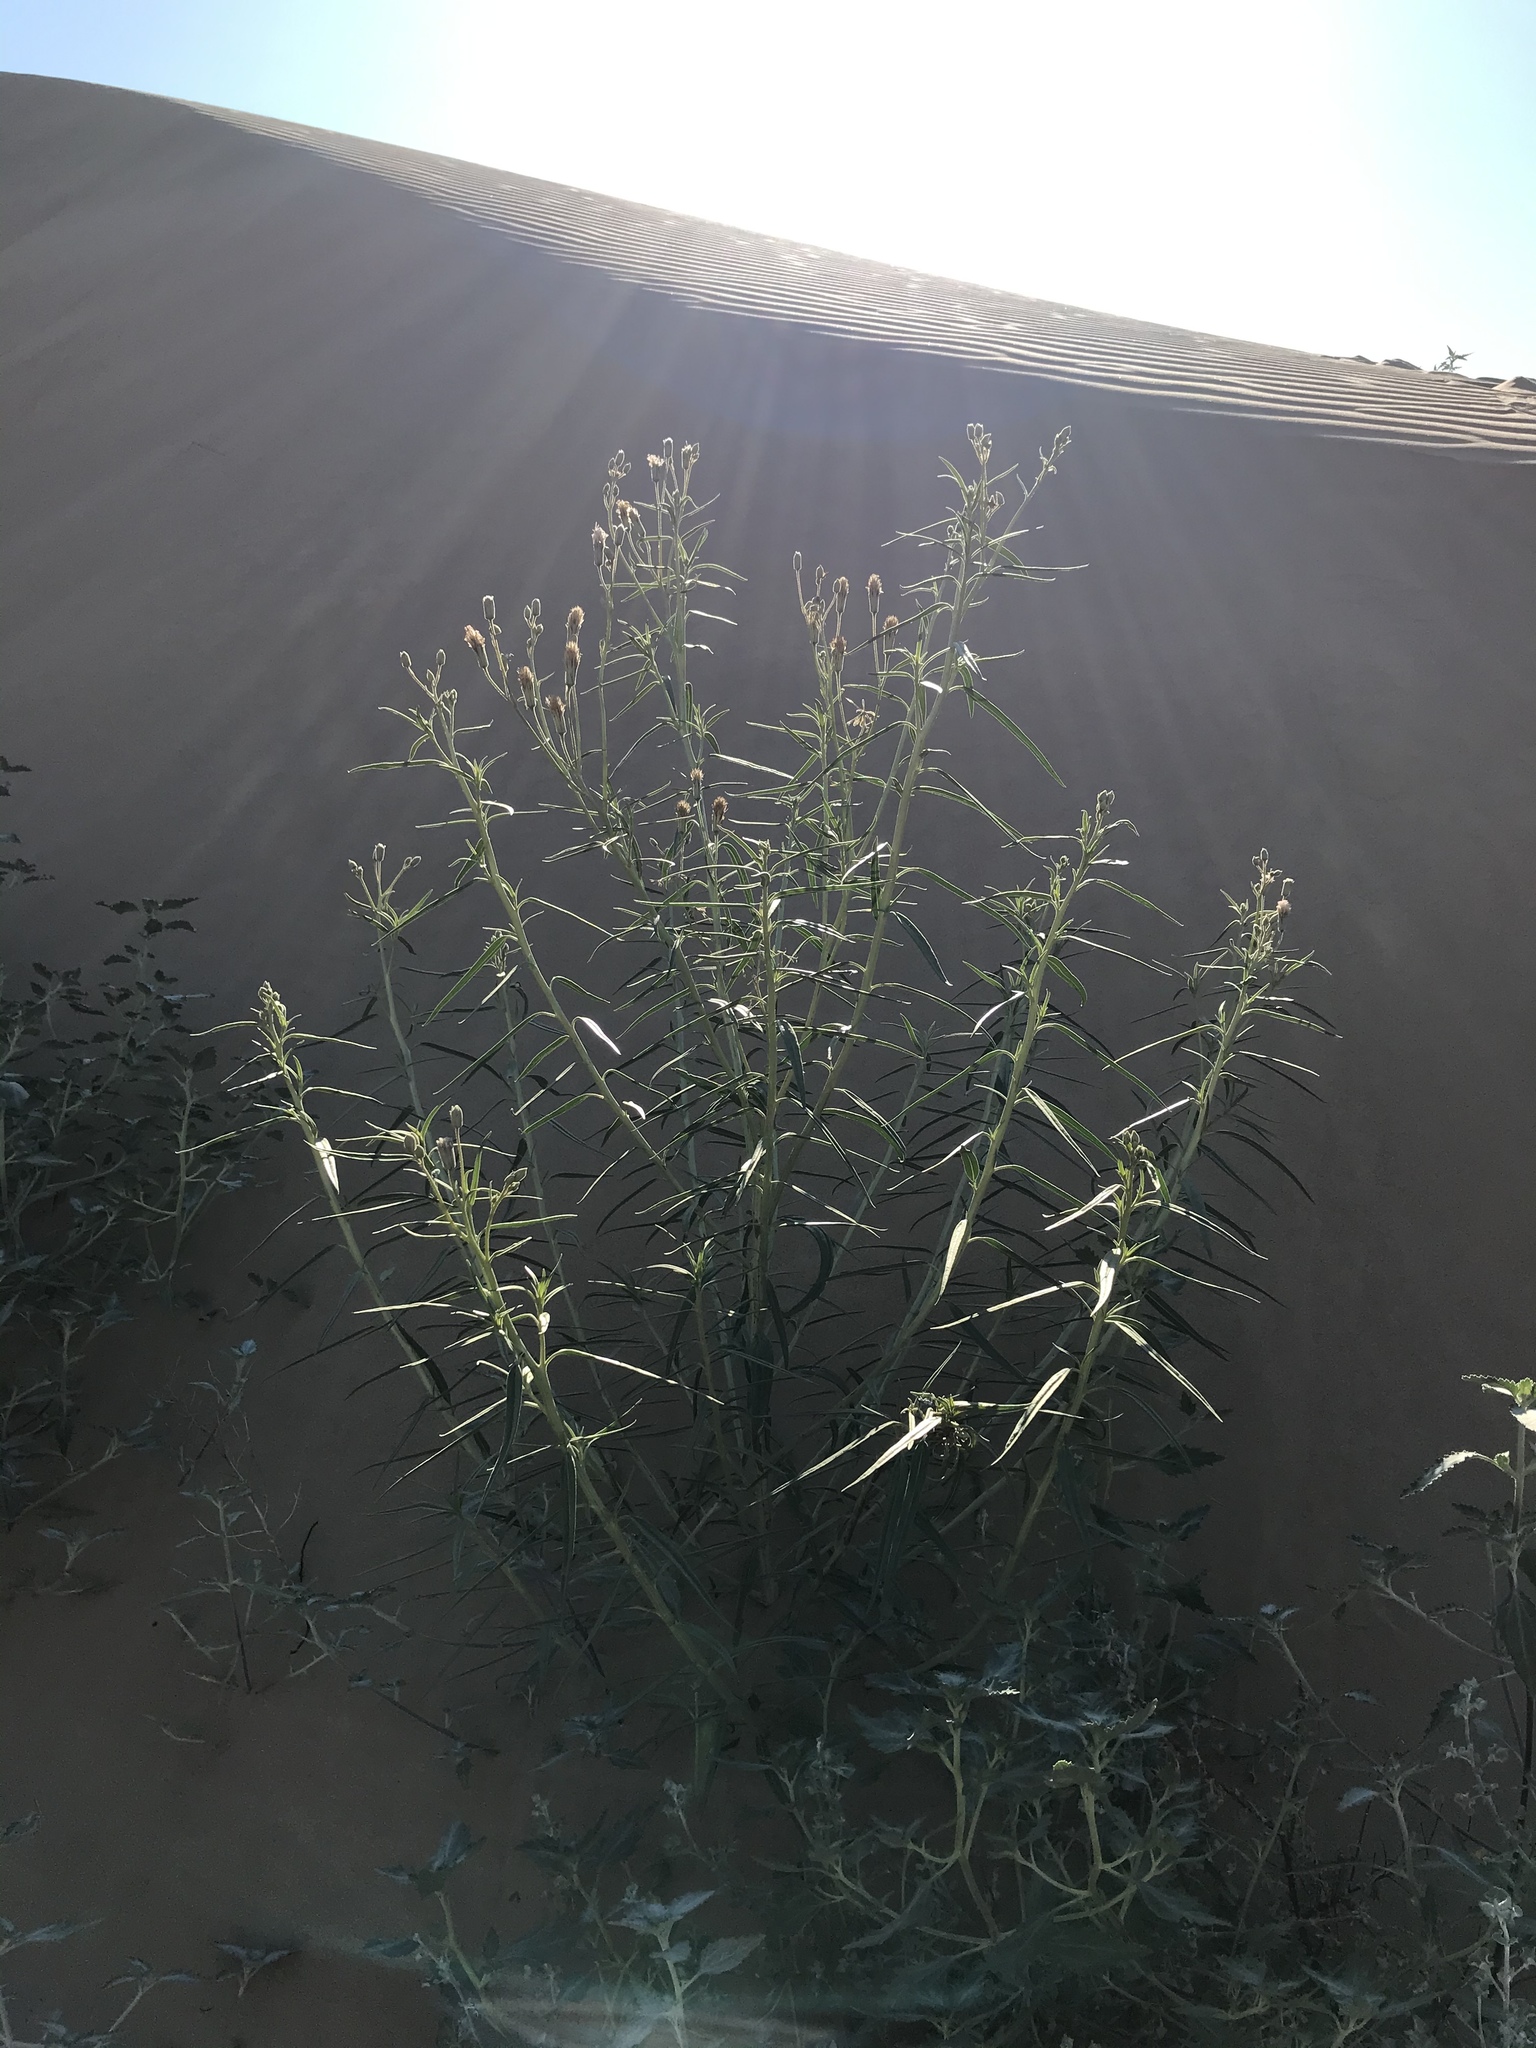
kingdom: Plantae
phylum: Tracheophyta
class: Magnoliopsida
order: Asterales
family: Asteraceae
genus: Palafoxia
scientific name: Palafoxia arida
